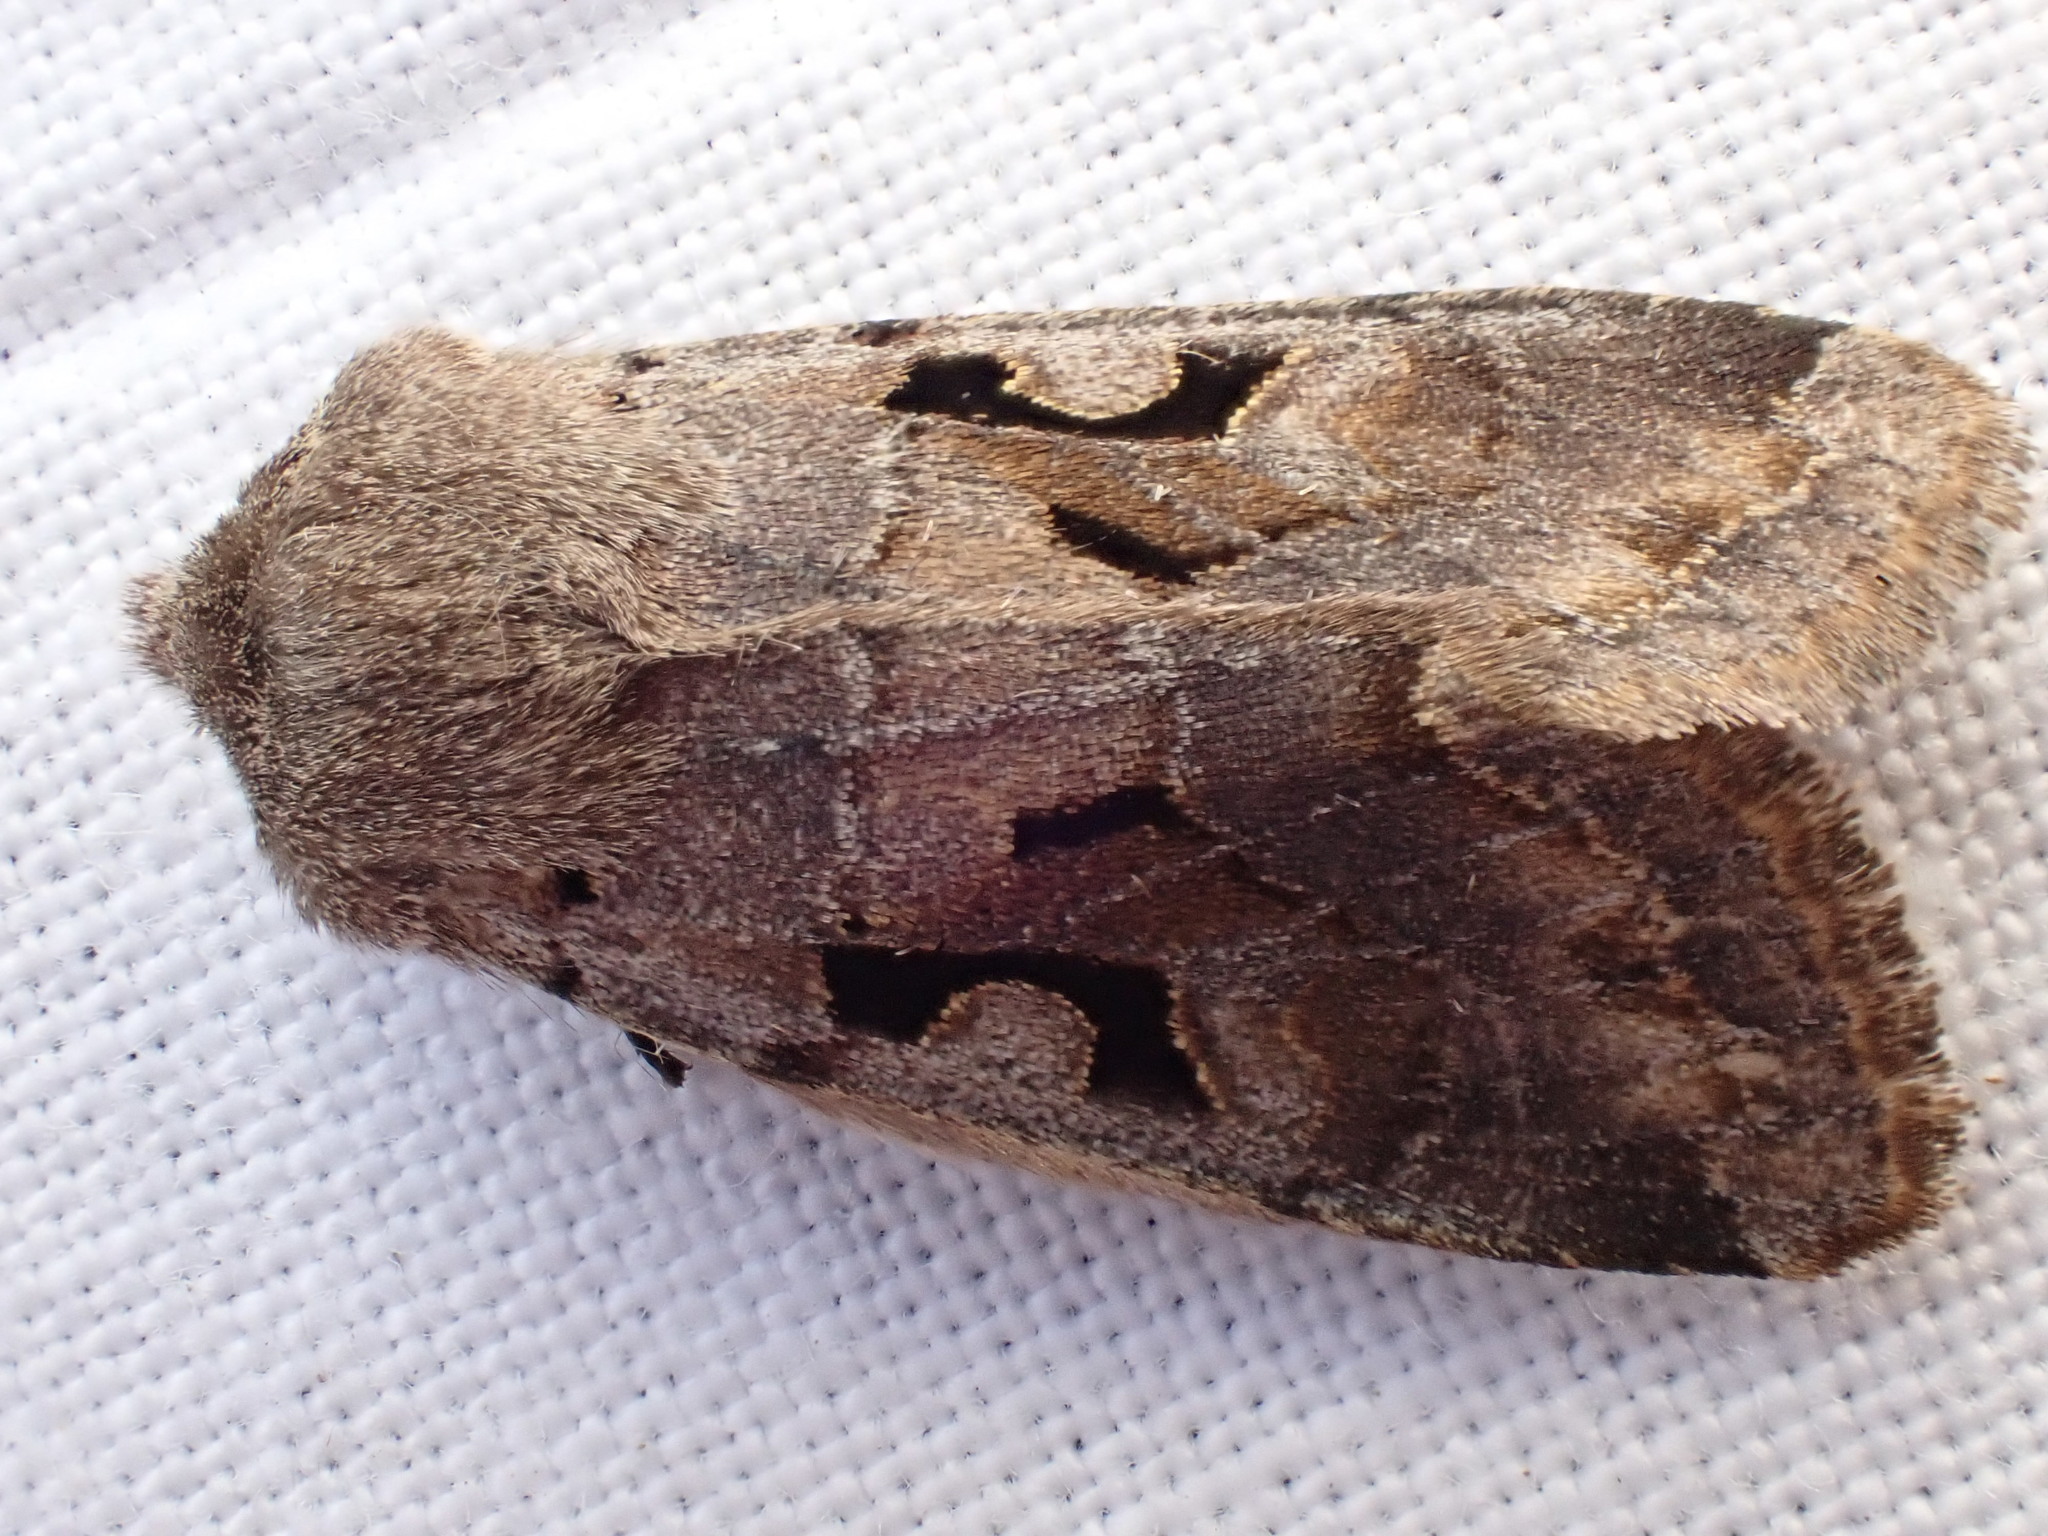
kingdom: Animalia
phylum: Arthropoda
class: Insecta
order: Lepidoptera
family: Noctuidae
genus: Orthosia
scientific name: Orthosia gothica
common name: Hebrew character
